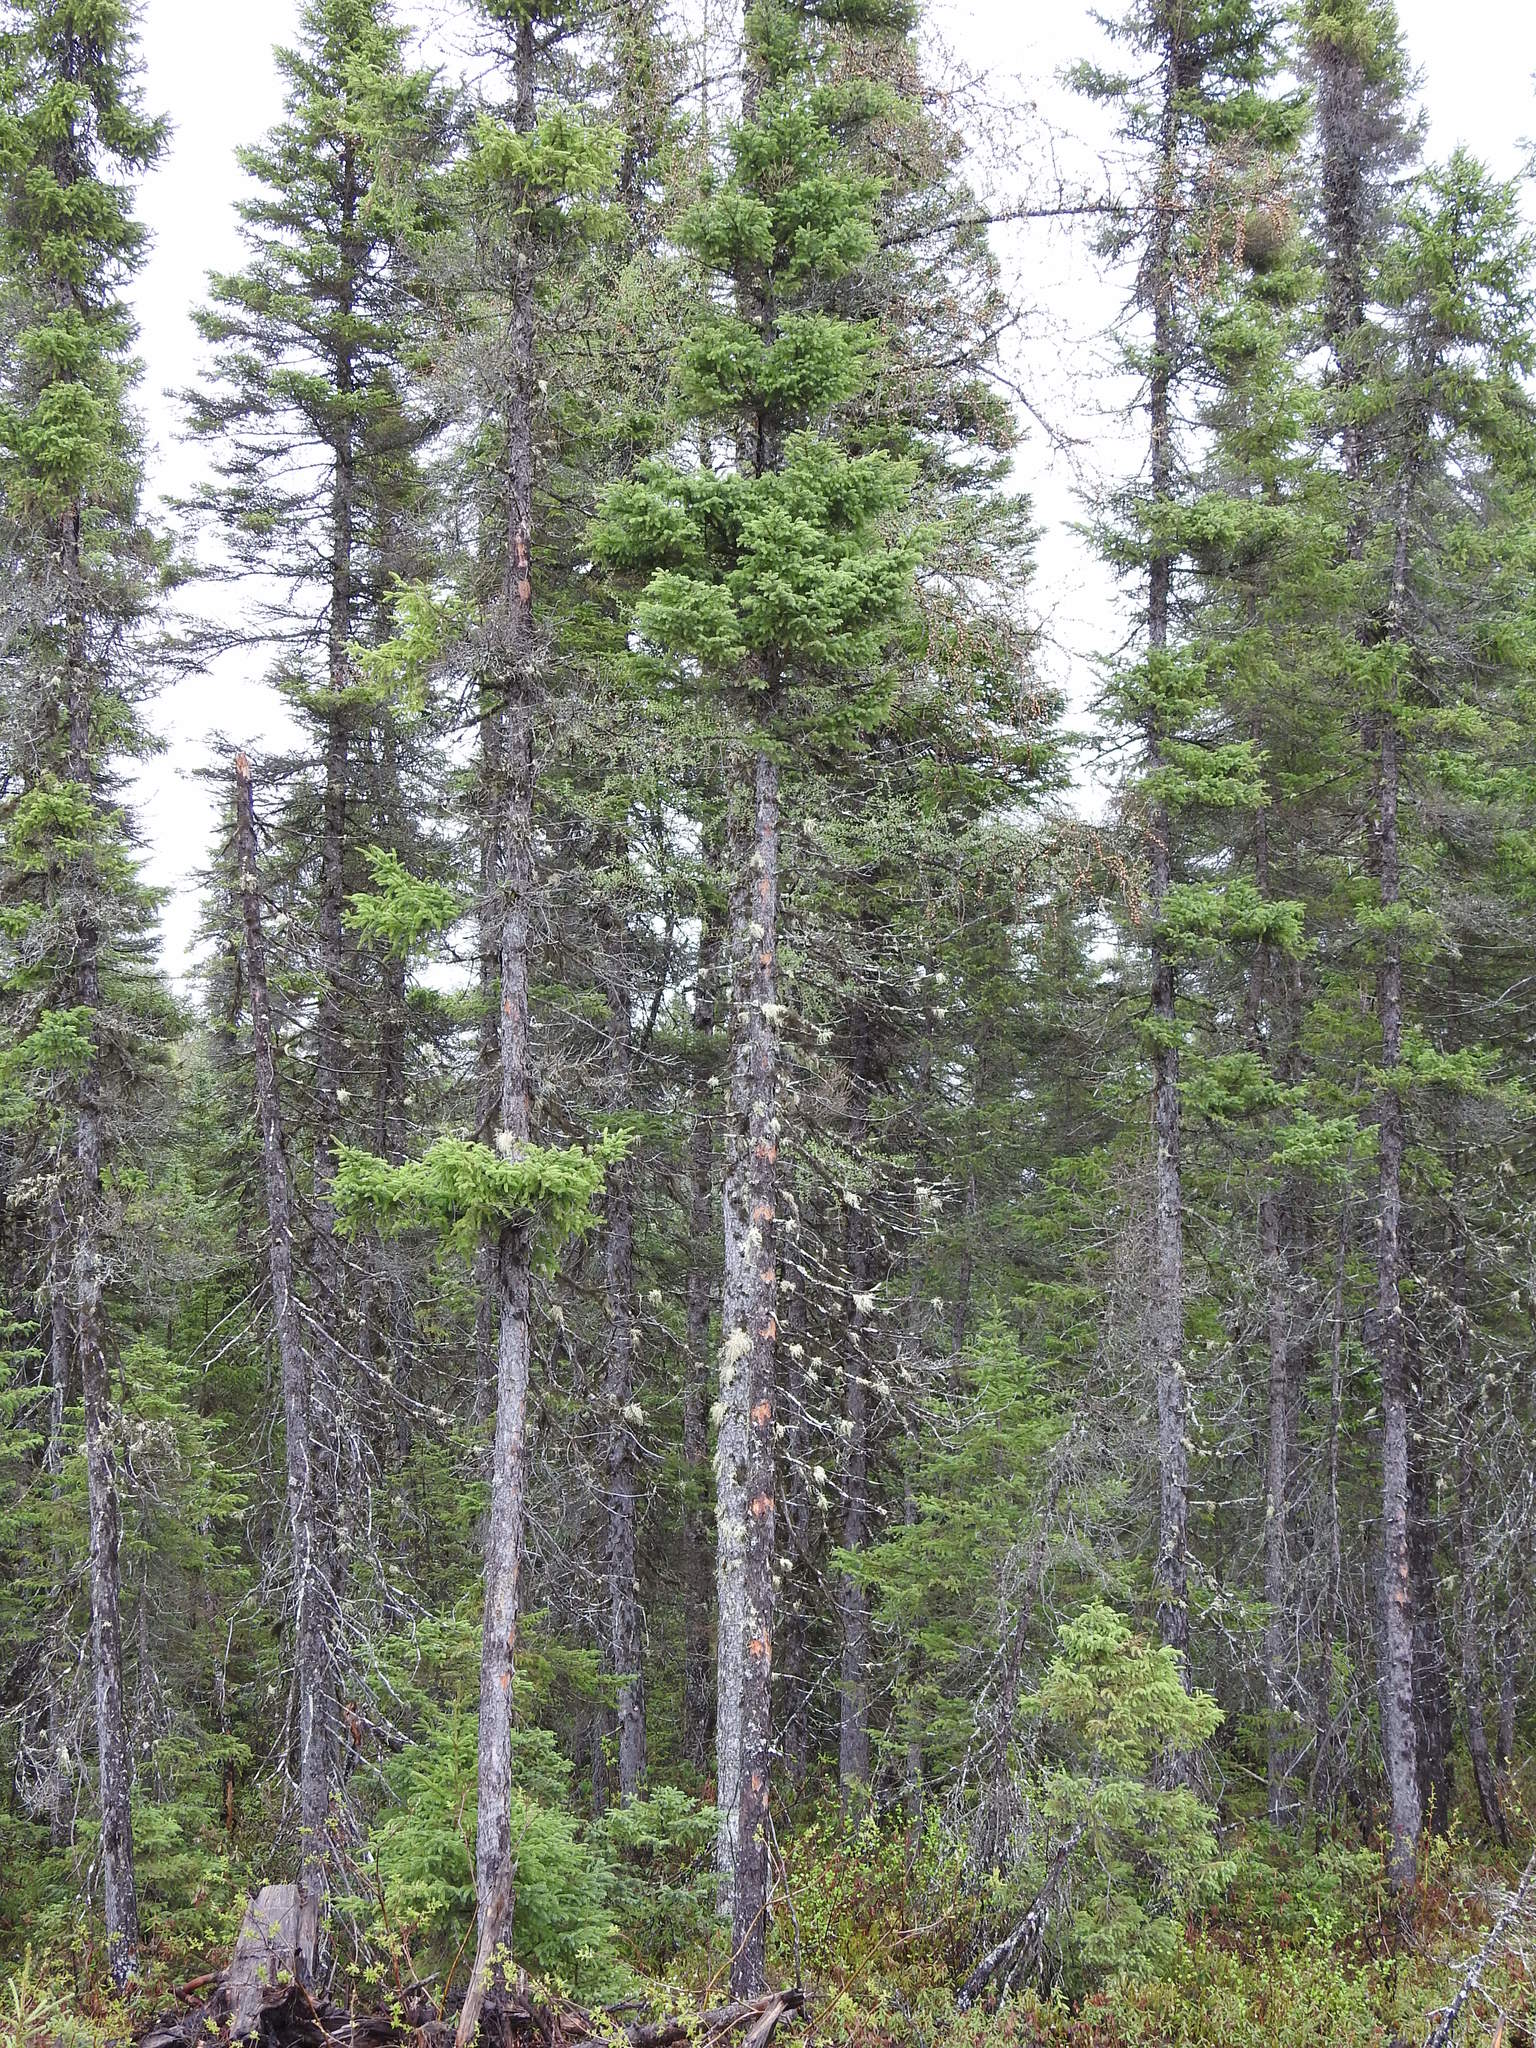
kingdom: Animalia
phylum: Chordata
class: Aves
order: Piciformes
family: Picidae
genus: Picoides
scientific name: Picoides dorsalis
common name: American three-toed woodpecker
